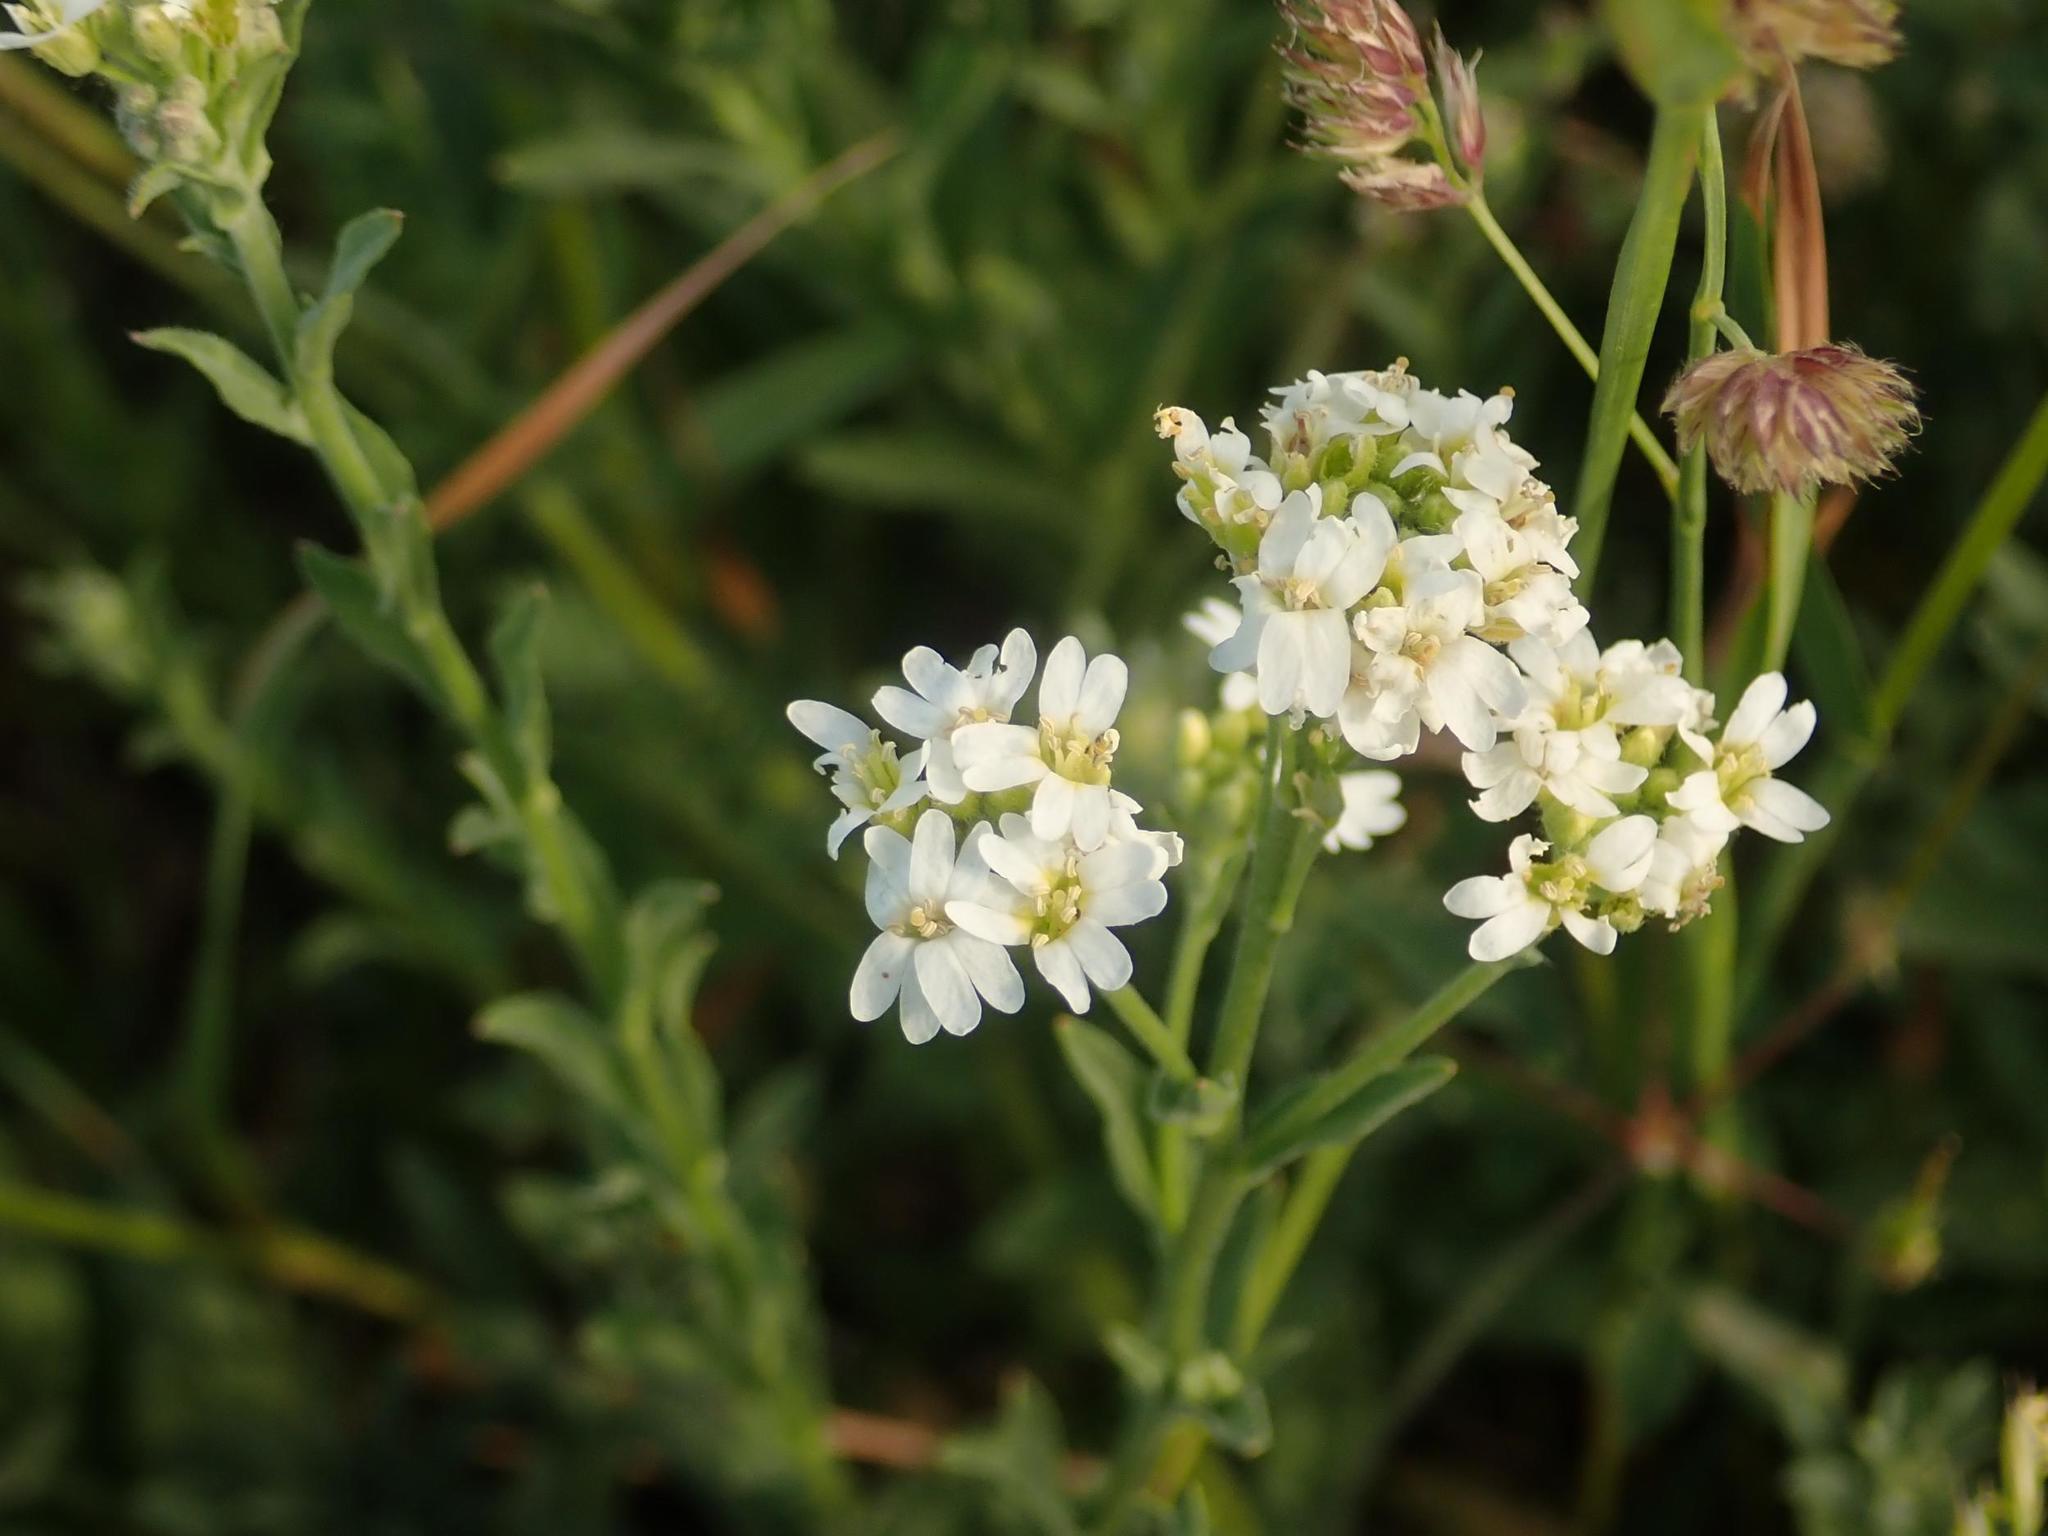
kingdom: Plantae
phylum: Tracheophyta
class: Magnoliopsida
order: Brassicales
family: Brassicaceae
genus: Berteroa
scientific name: Berteroa incana
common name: Hoary alison
